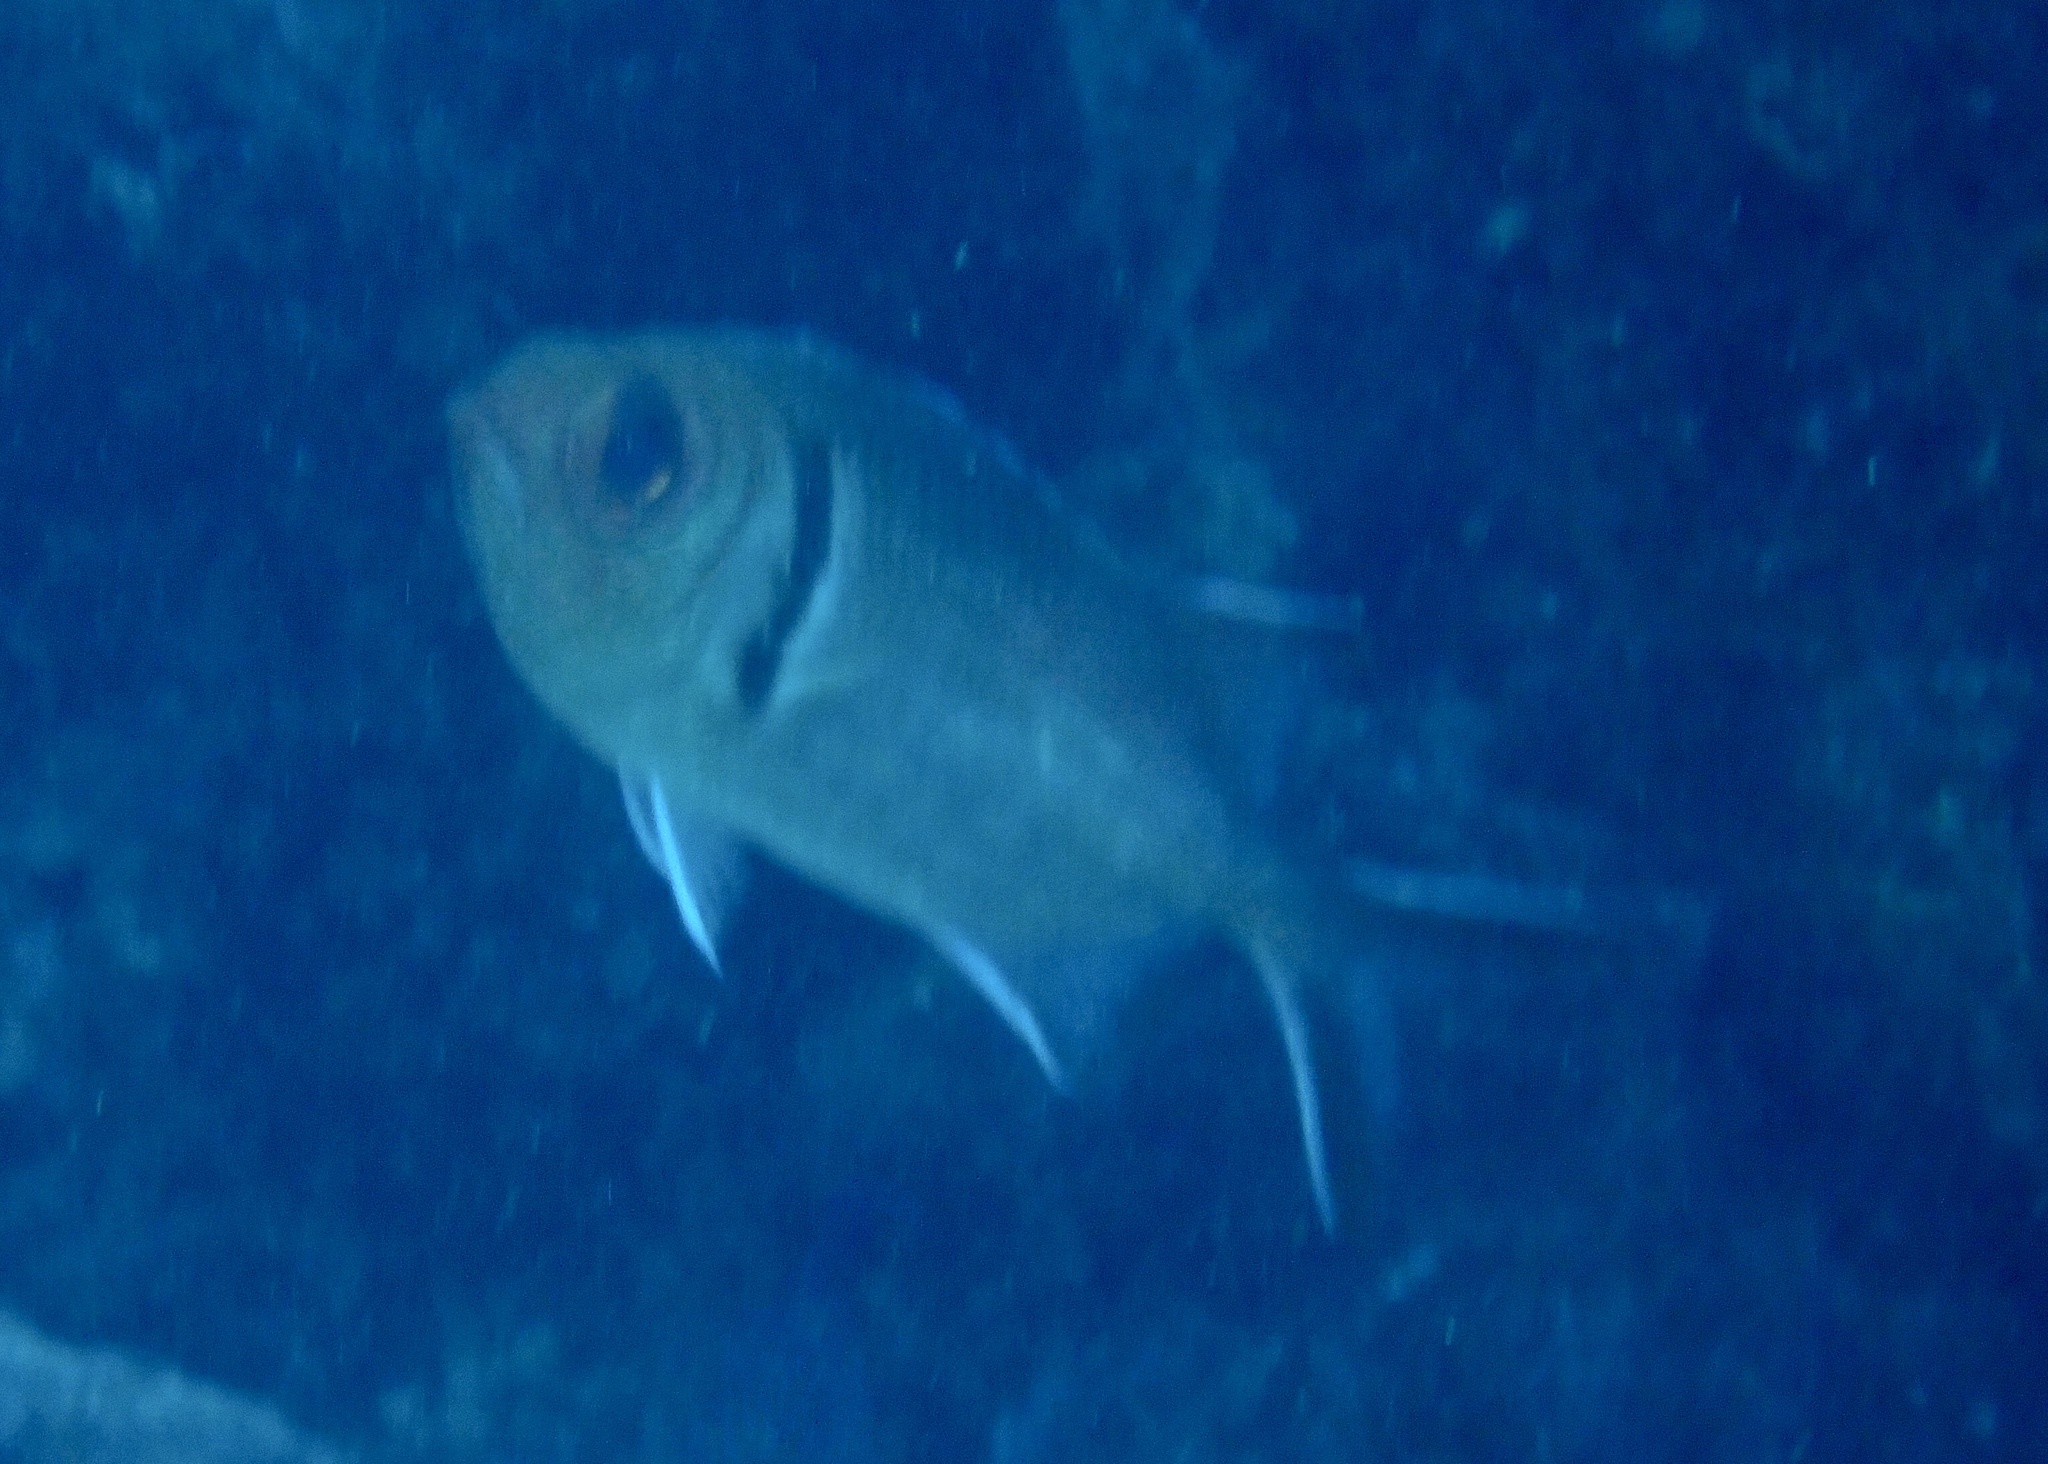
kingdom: Animalia
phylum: Chordata
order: Beryciformes
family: Holocentridae
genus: Myripristis
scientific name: Myripristis jacobus
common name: Blackbar soldierfish
